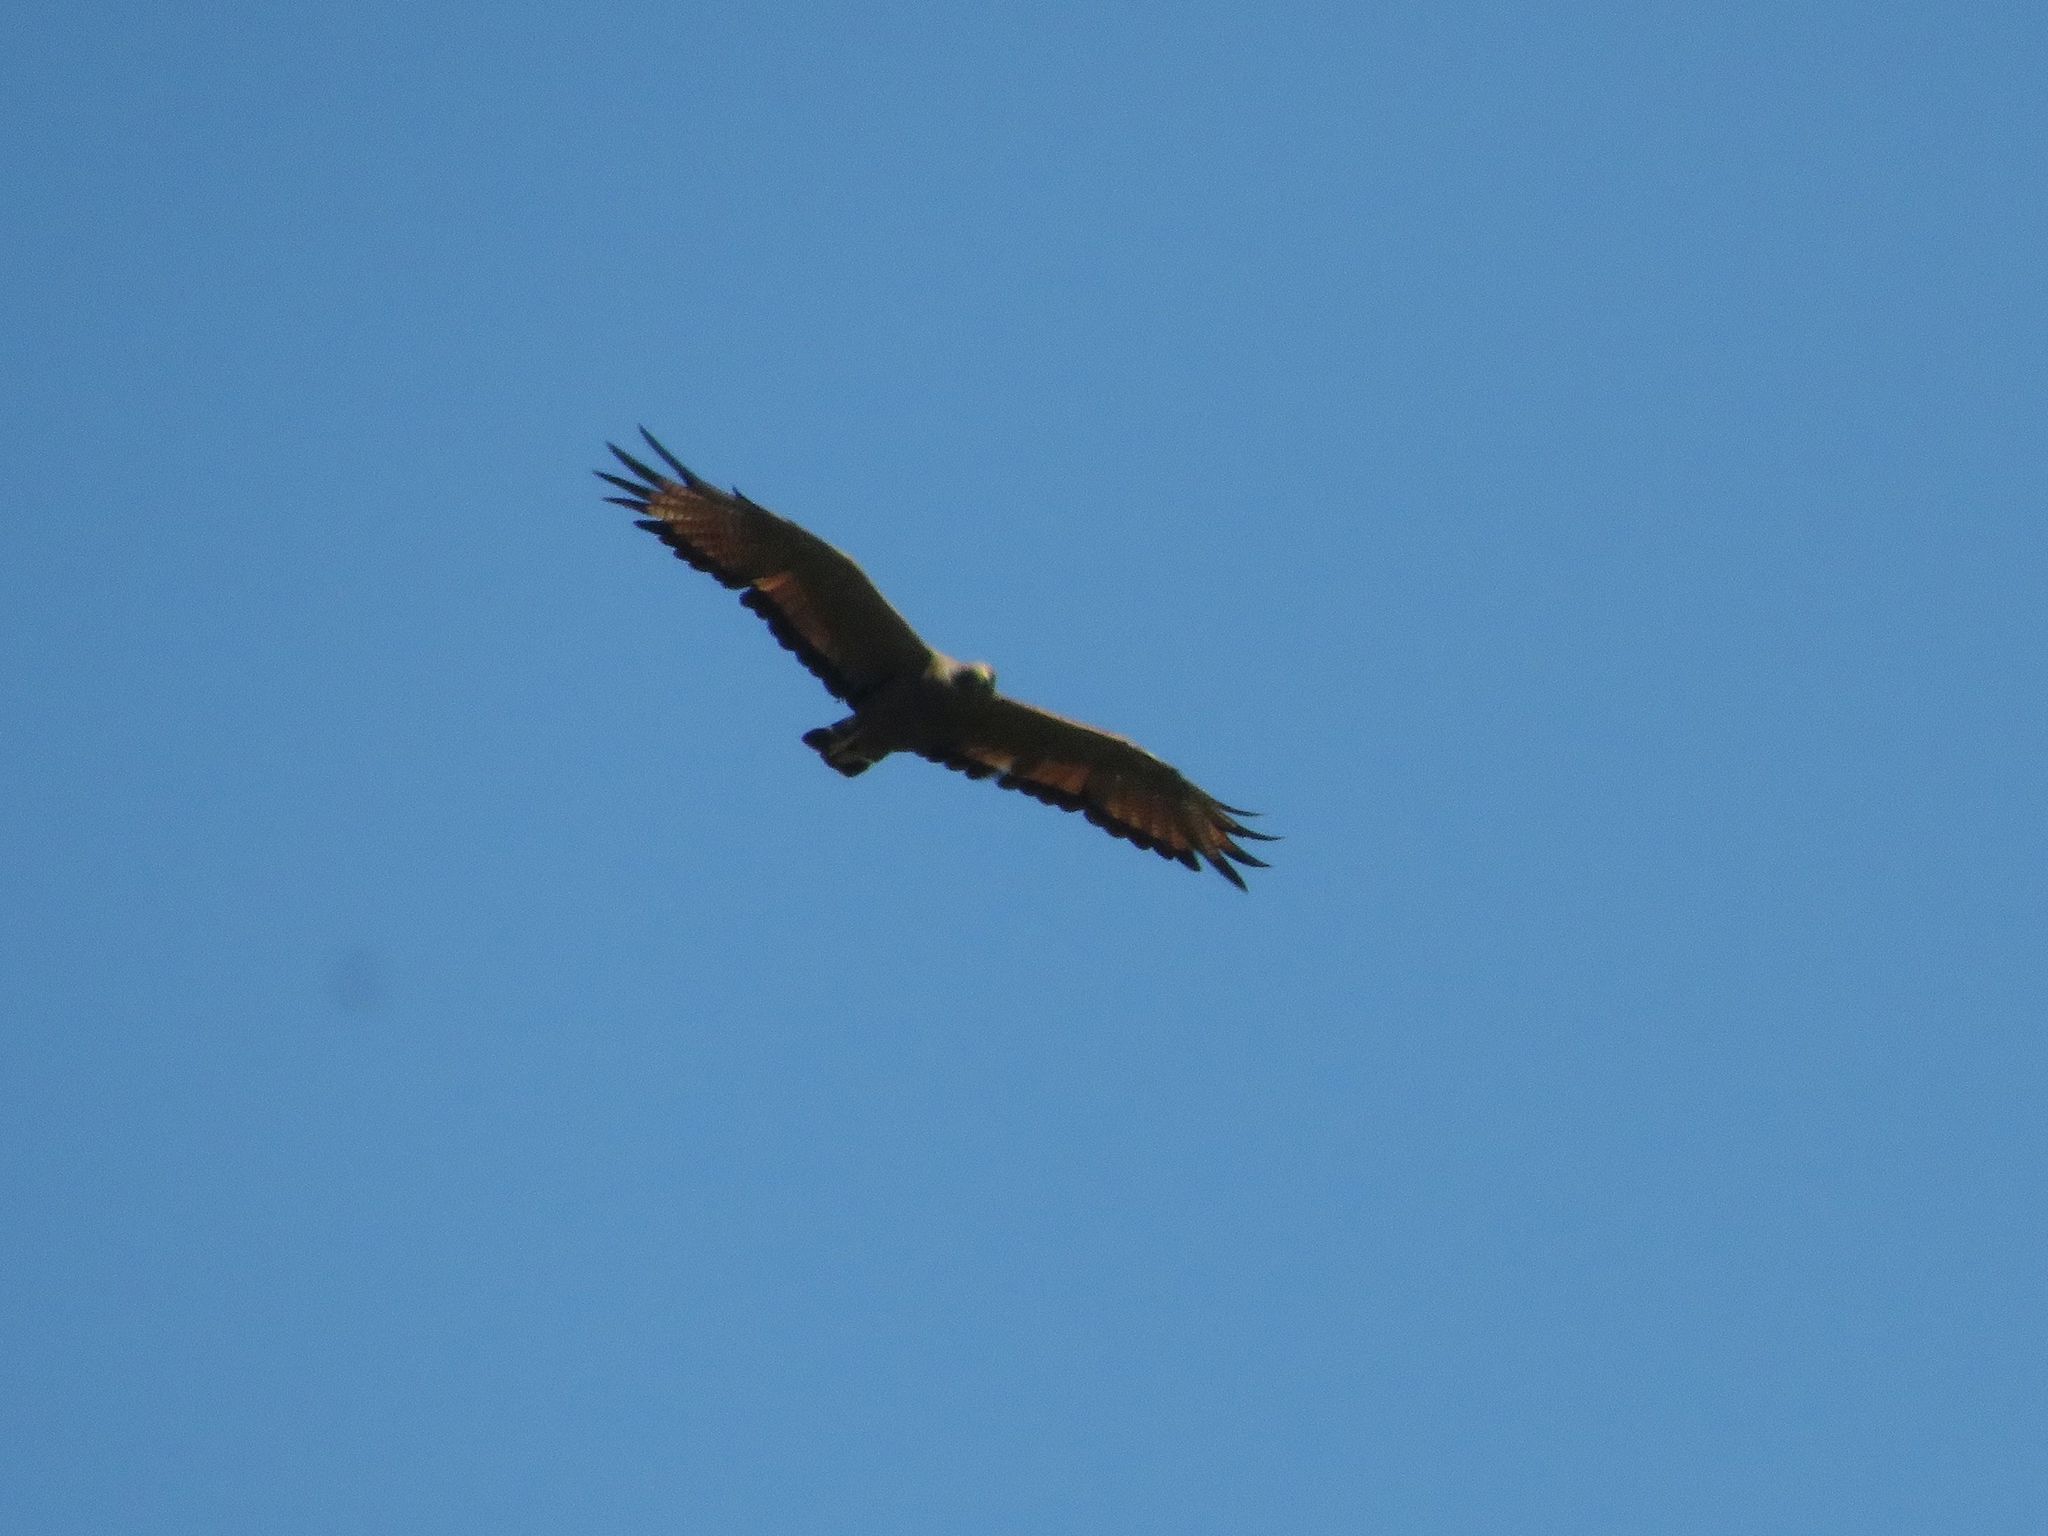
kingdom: Animalia
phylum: Chordata
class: Aves
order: Accipitriformes
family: Accipitridae
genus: Buteogallus
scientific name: Buteogallus meridionalis
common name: Savanna hawk
